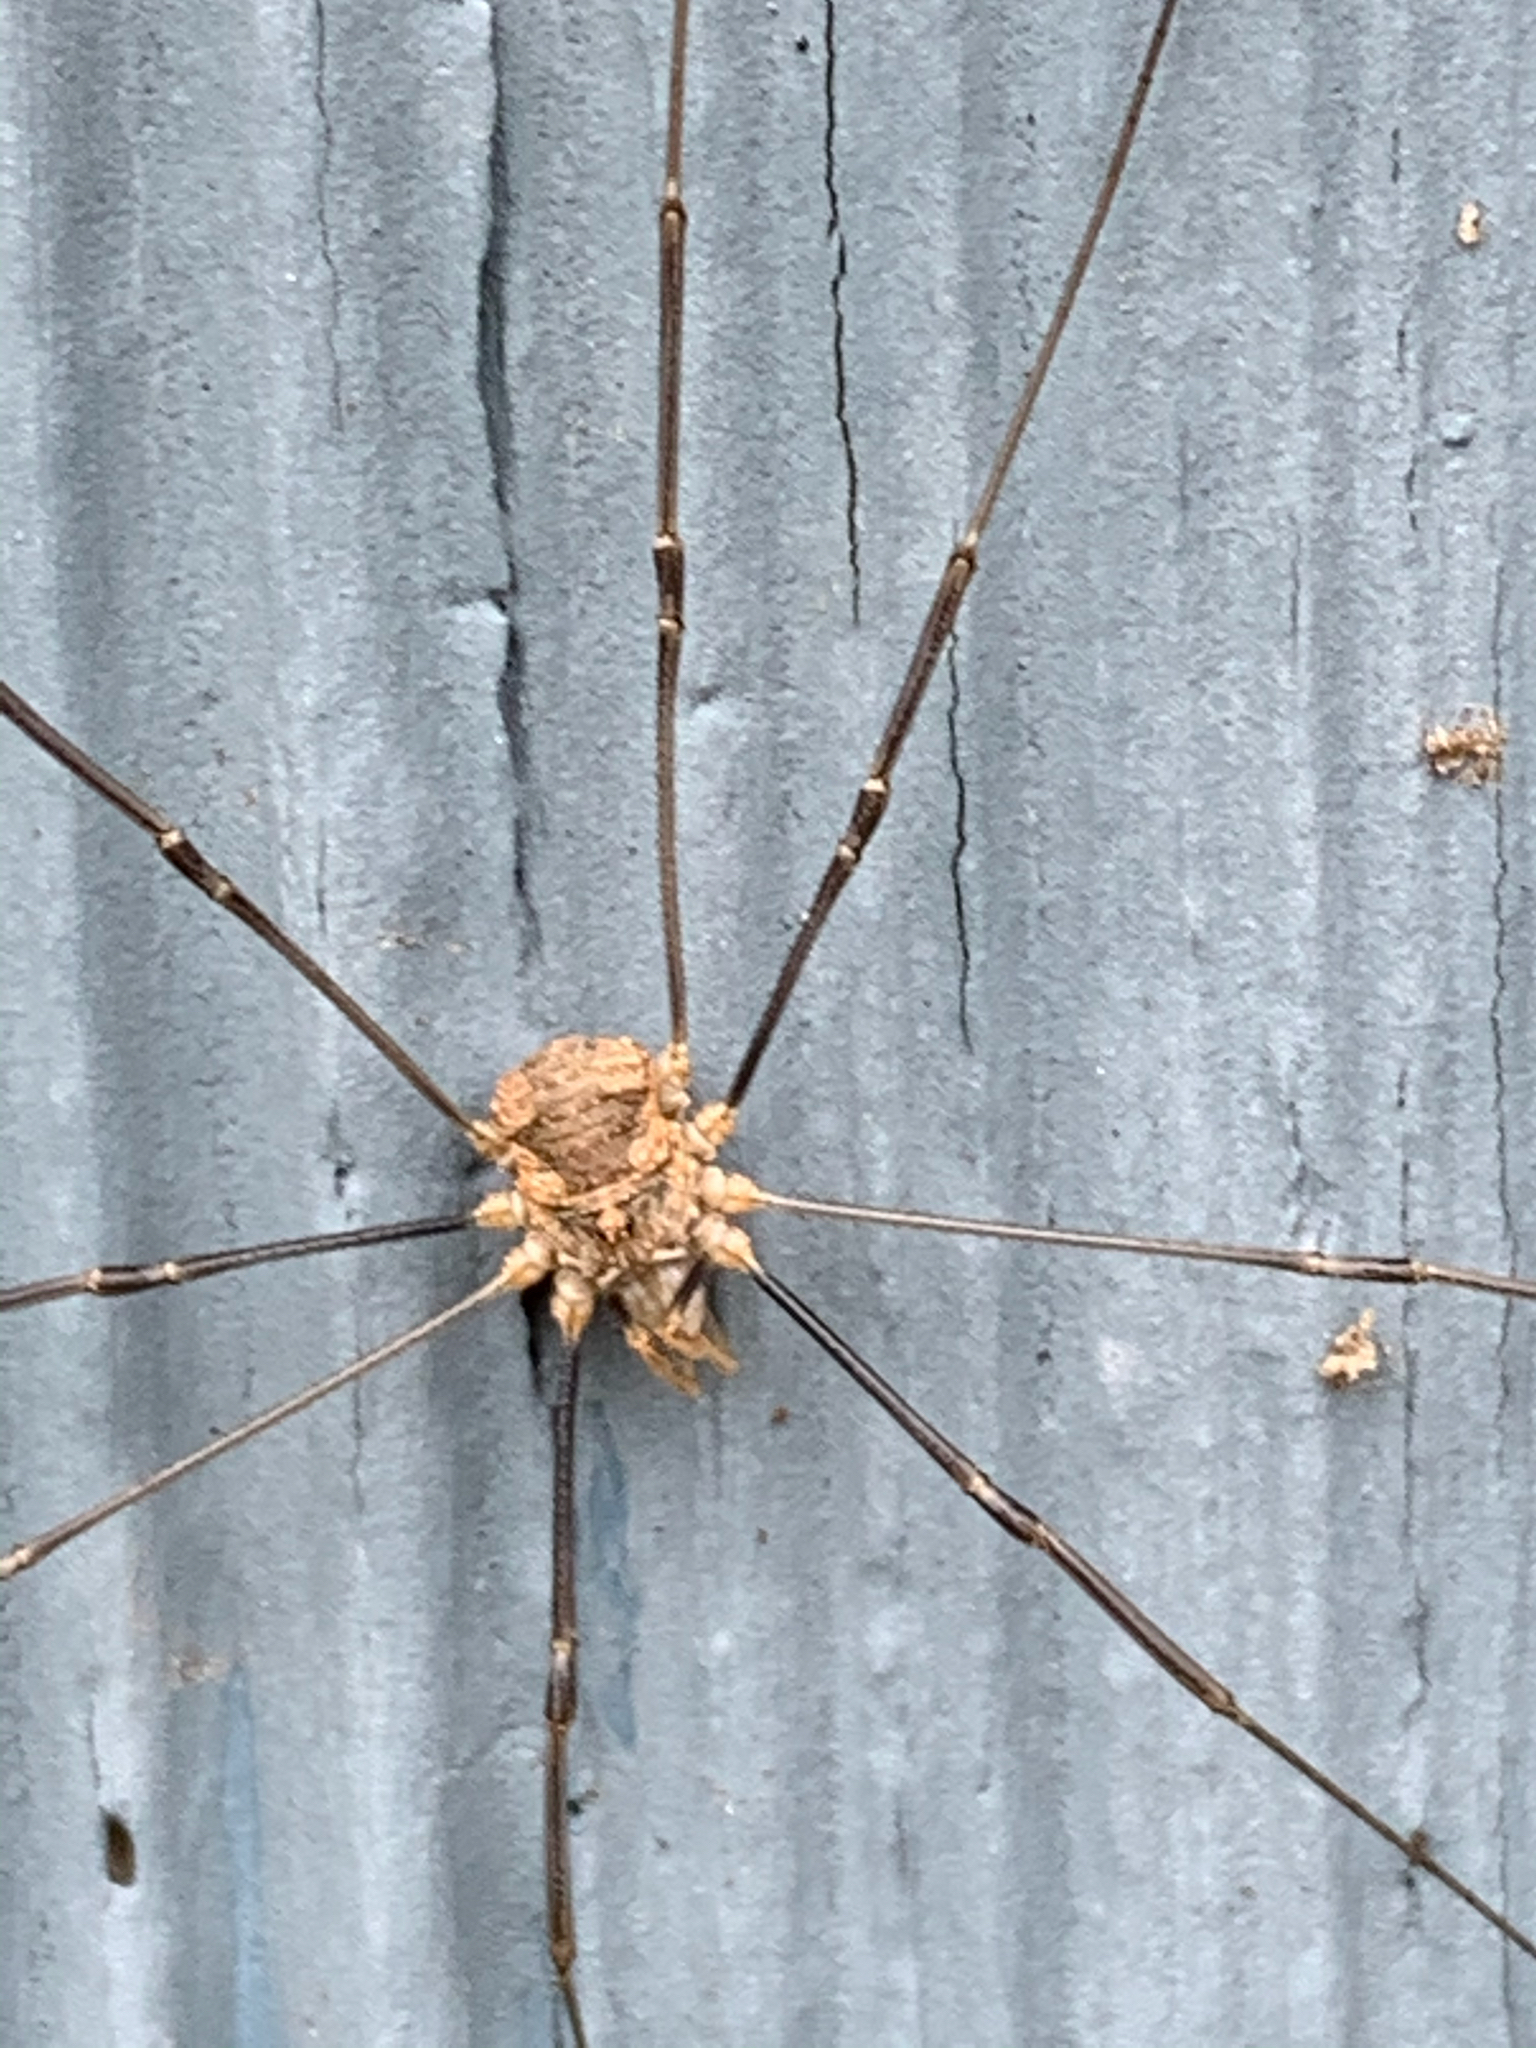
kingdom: Animalia
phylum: Arthropoda
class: Arachnida
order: Opiliones
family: Phalangiidae
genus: Phalangium
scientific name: Phalangium opilio
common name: Daddy longleg
